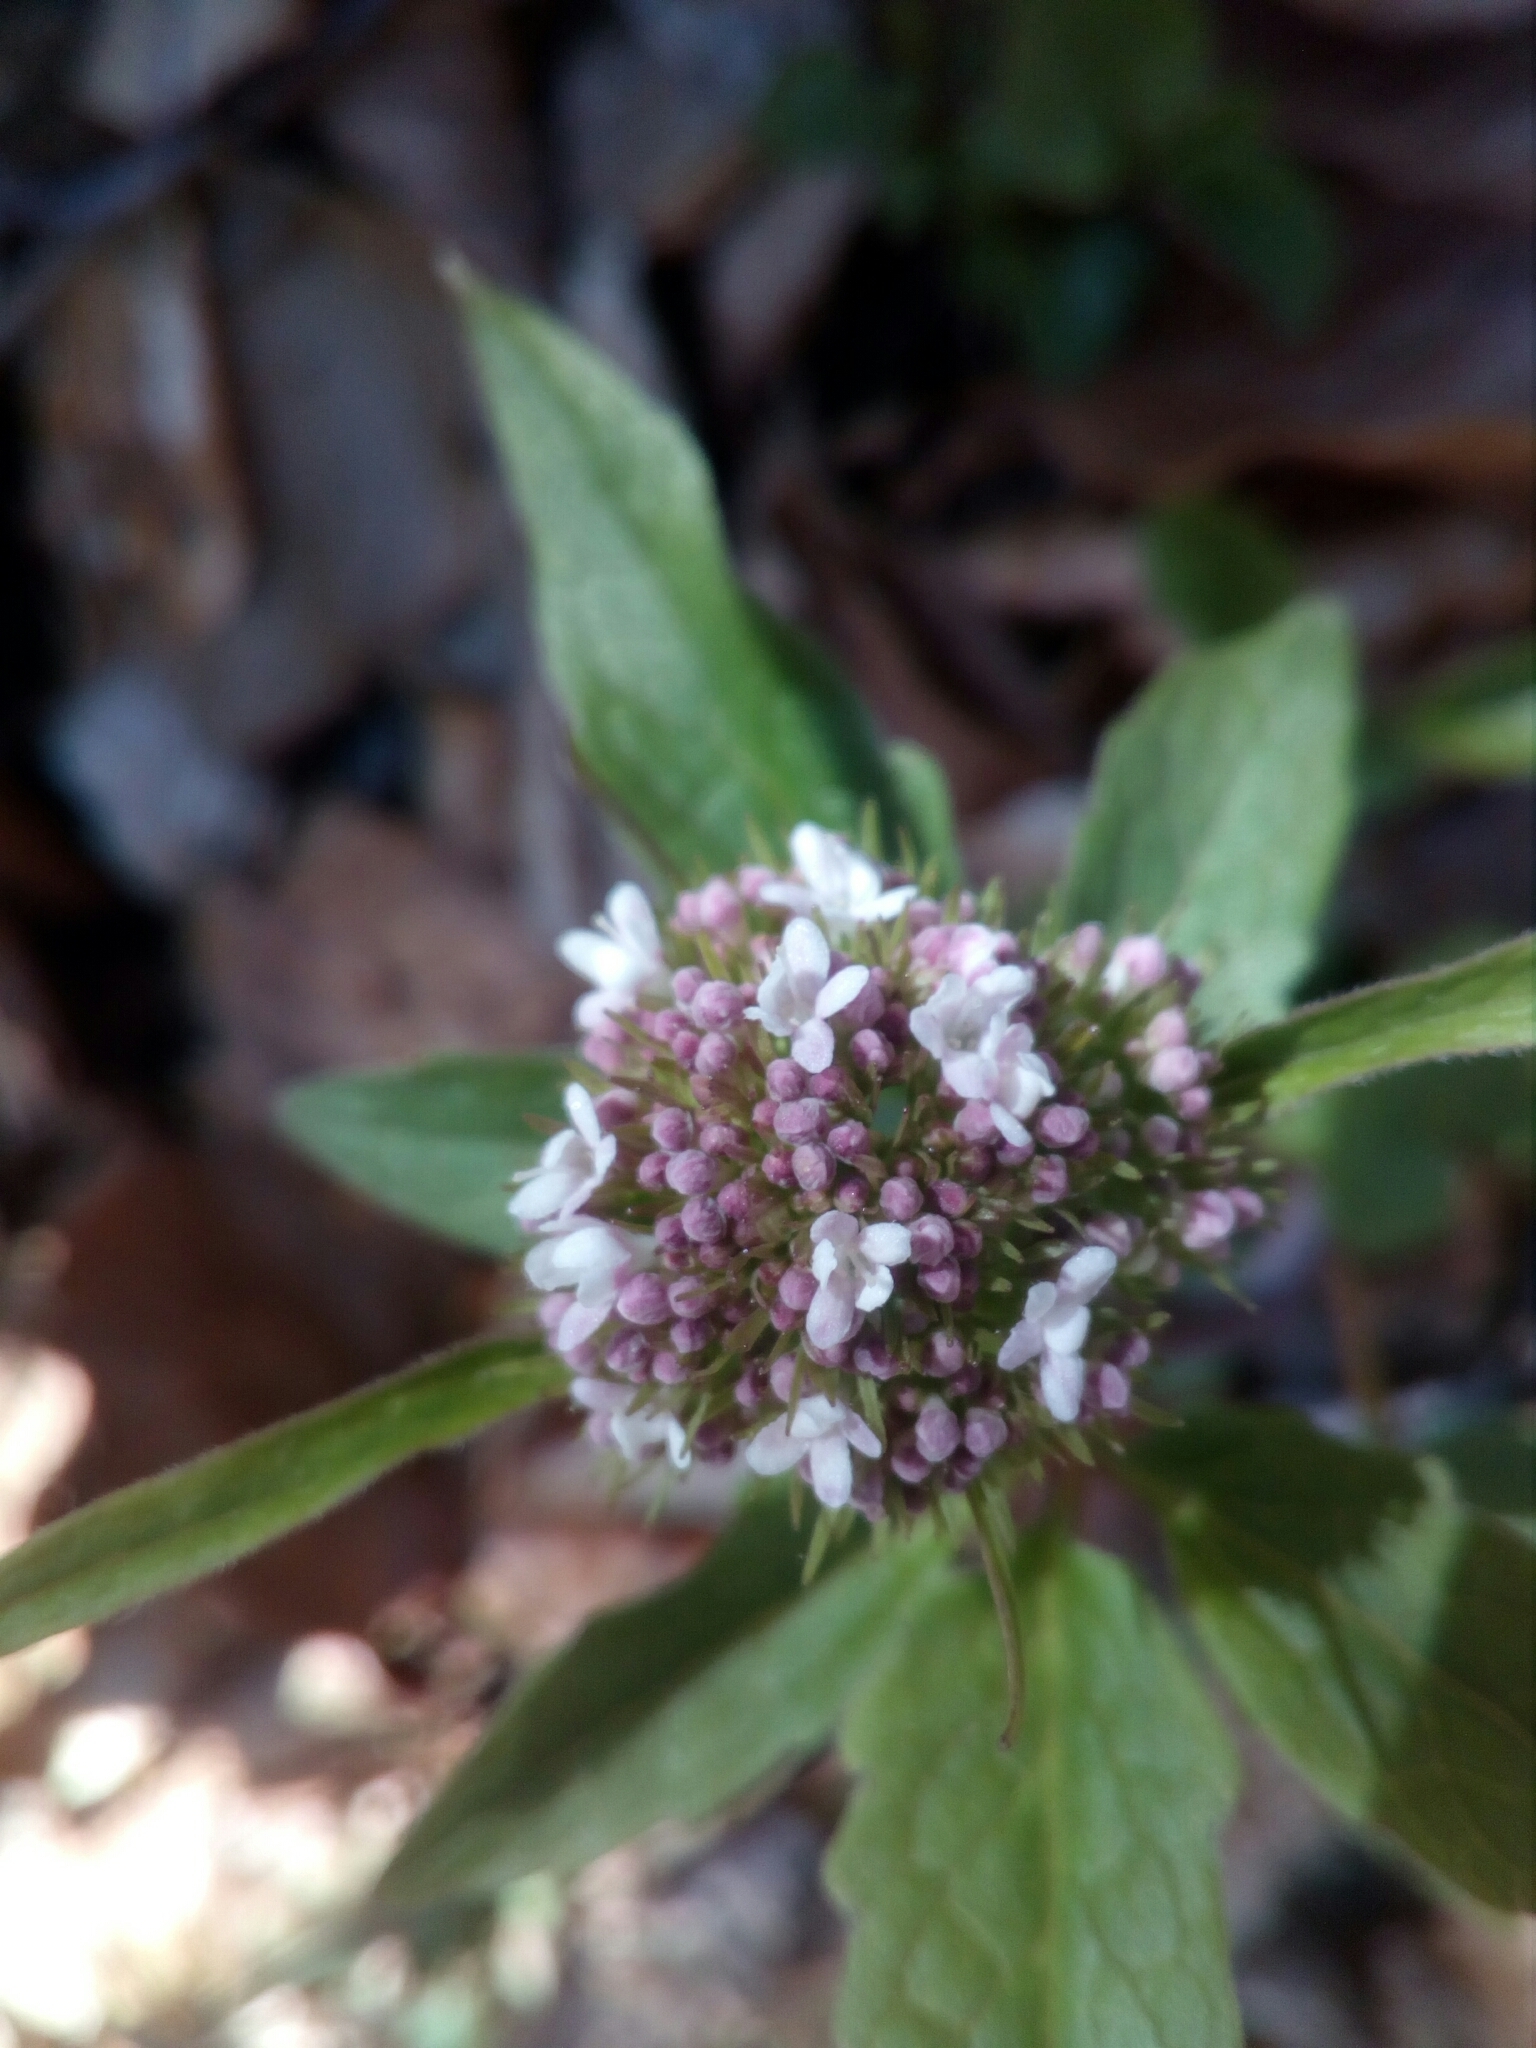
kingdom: Plantae
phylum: Tracheophyta
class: Magnoliopsida
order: Dipsacales
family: Caprifoliaceae
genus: Valeriana
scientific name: Valeriana tripteris
